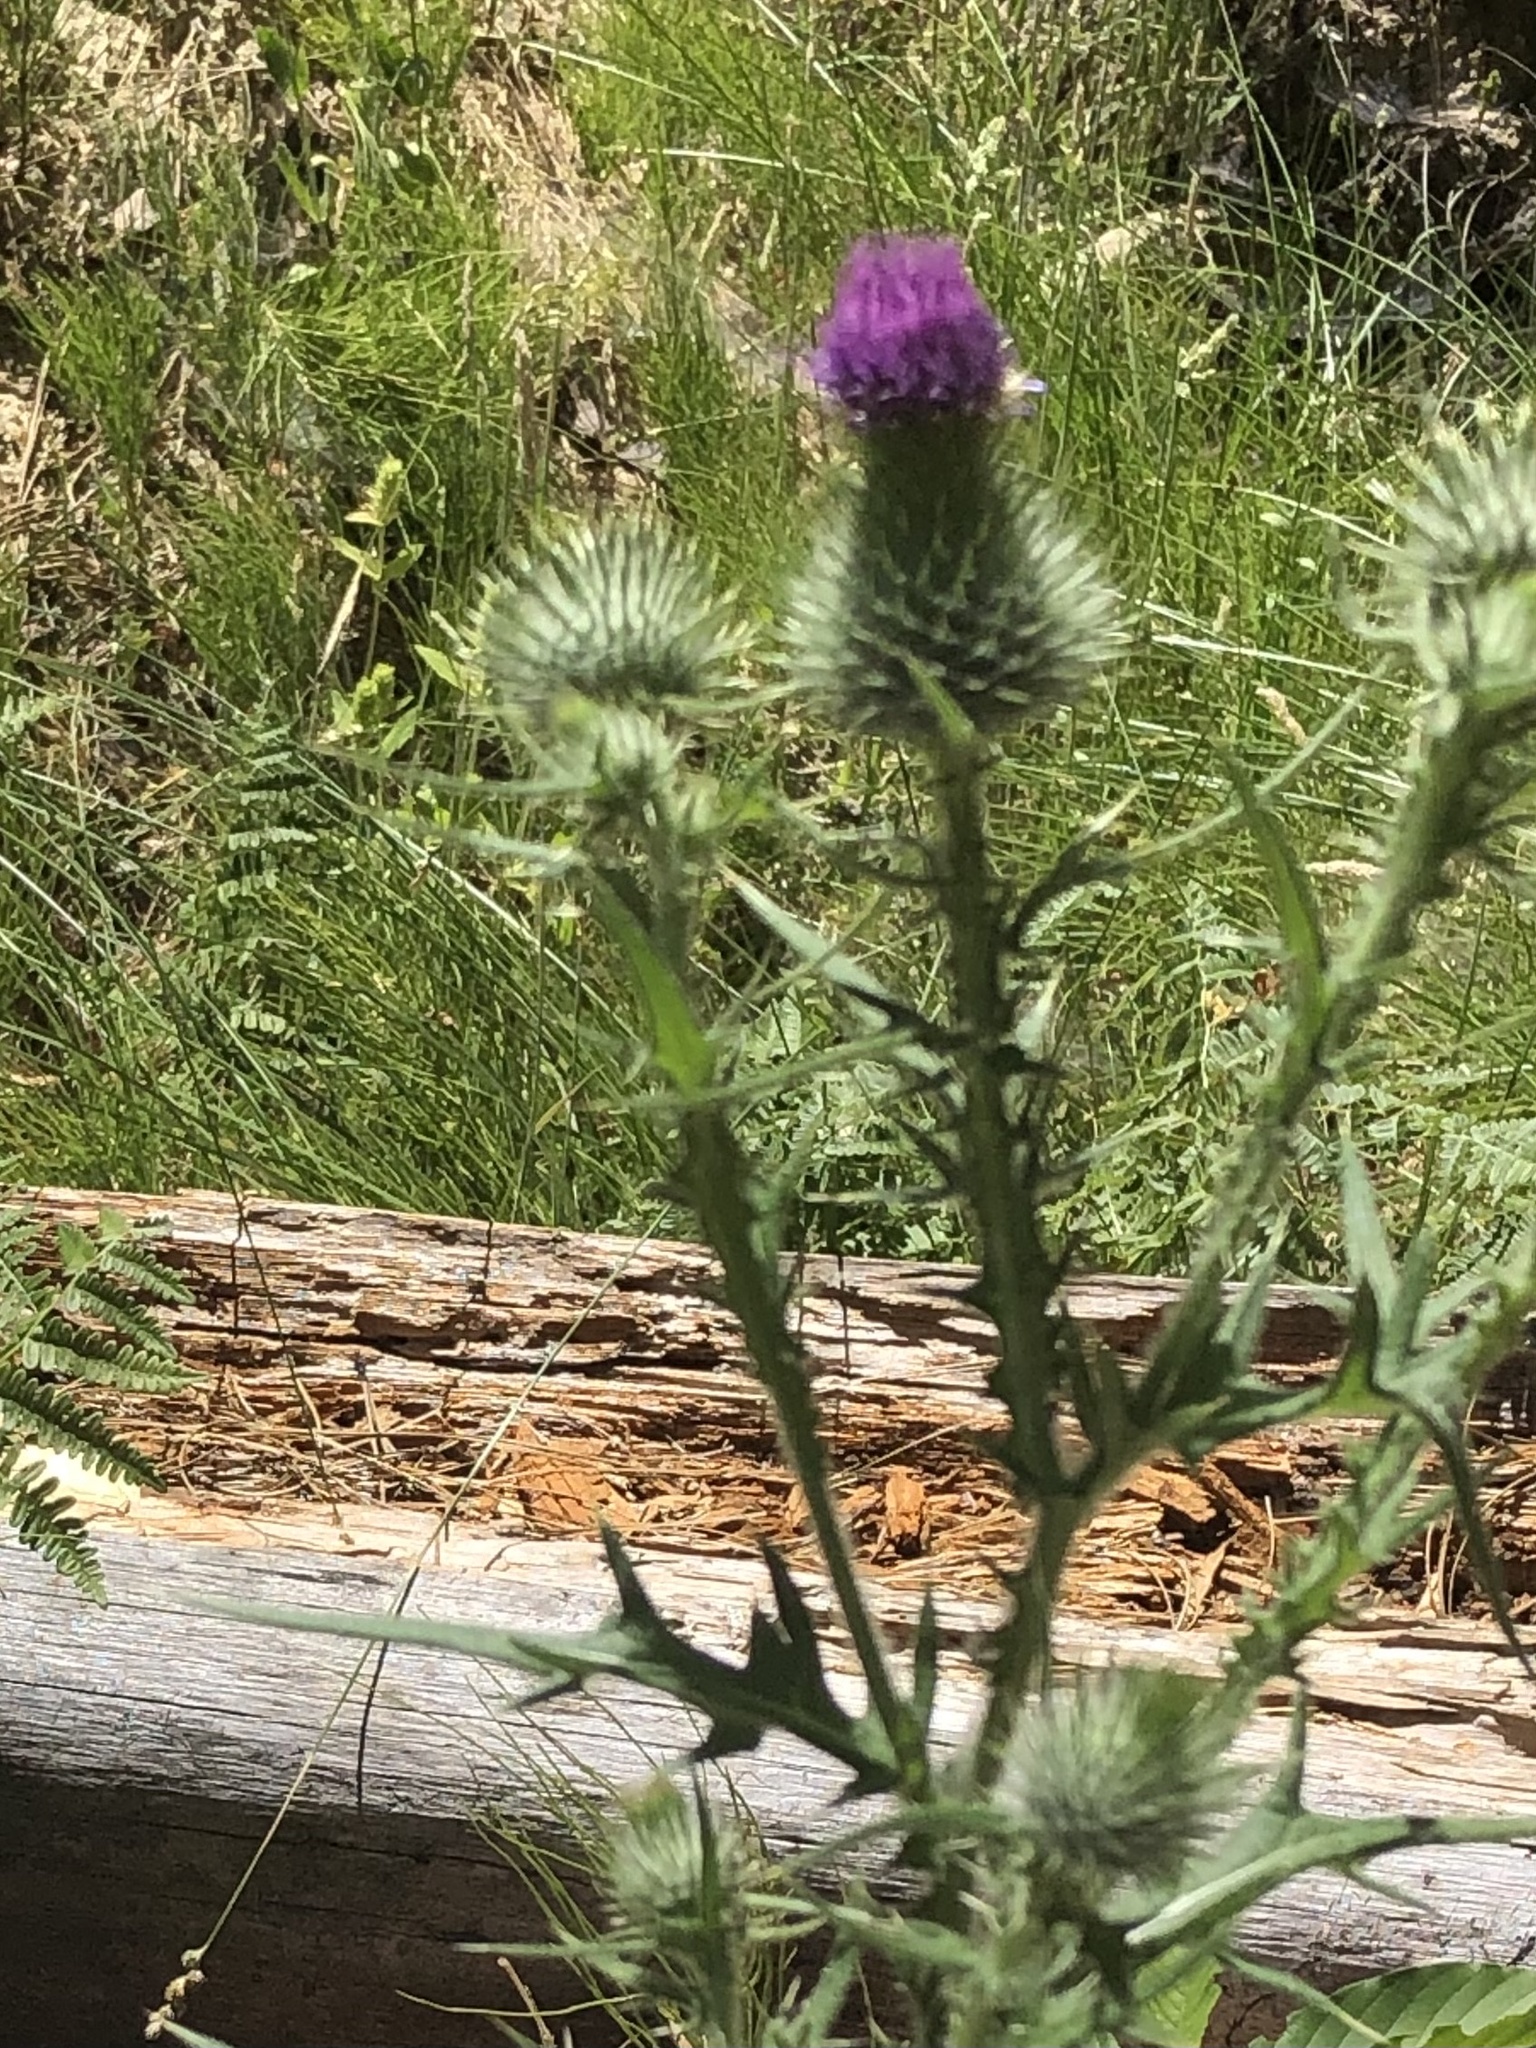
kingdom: Plantae
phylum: Tracheophyta
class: Magnoliopsida
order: Asterales
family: Asteraceae
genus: Cirsium
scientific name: Cirsium vulgare
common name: Bull thistle
